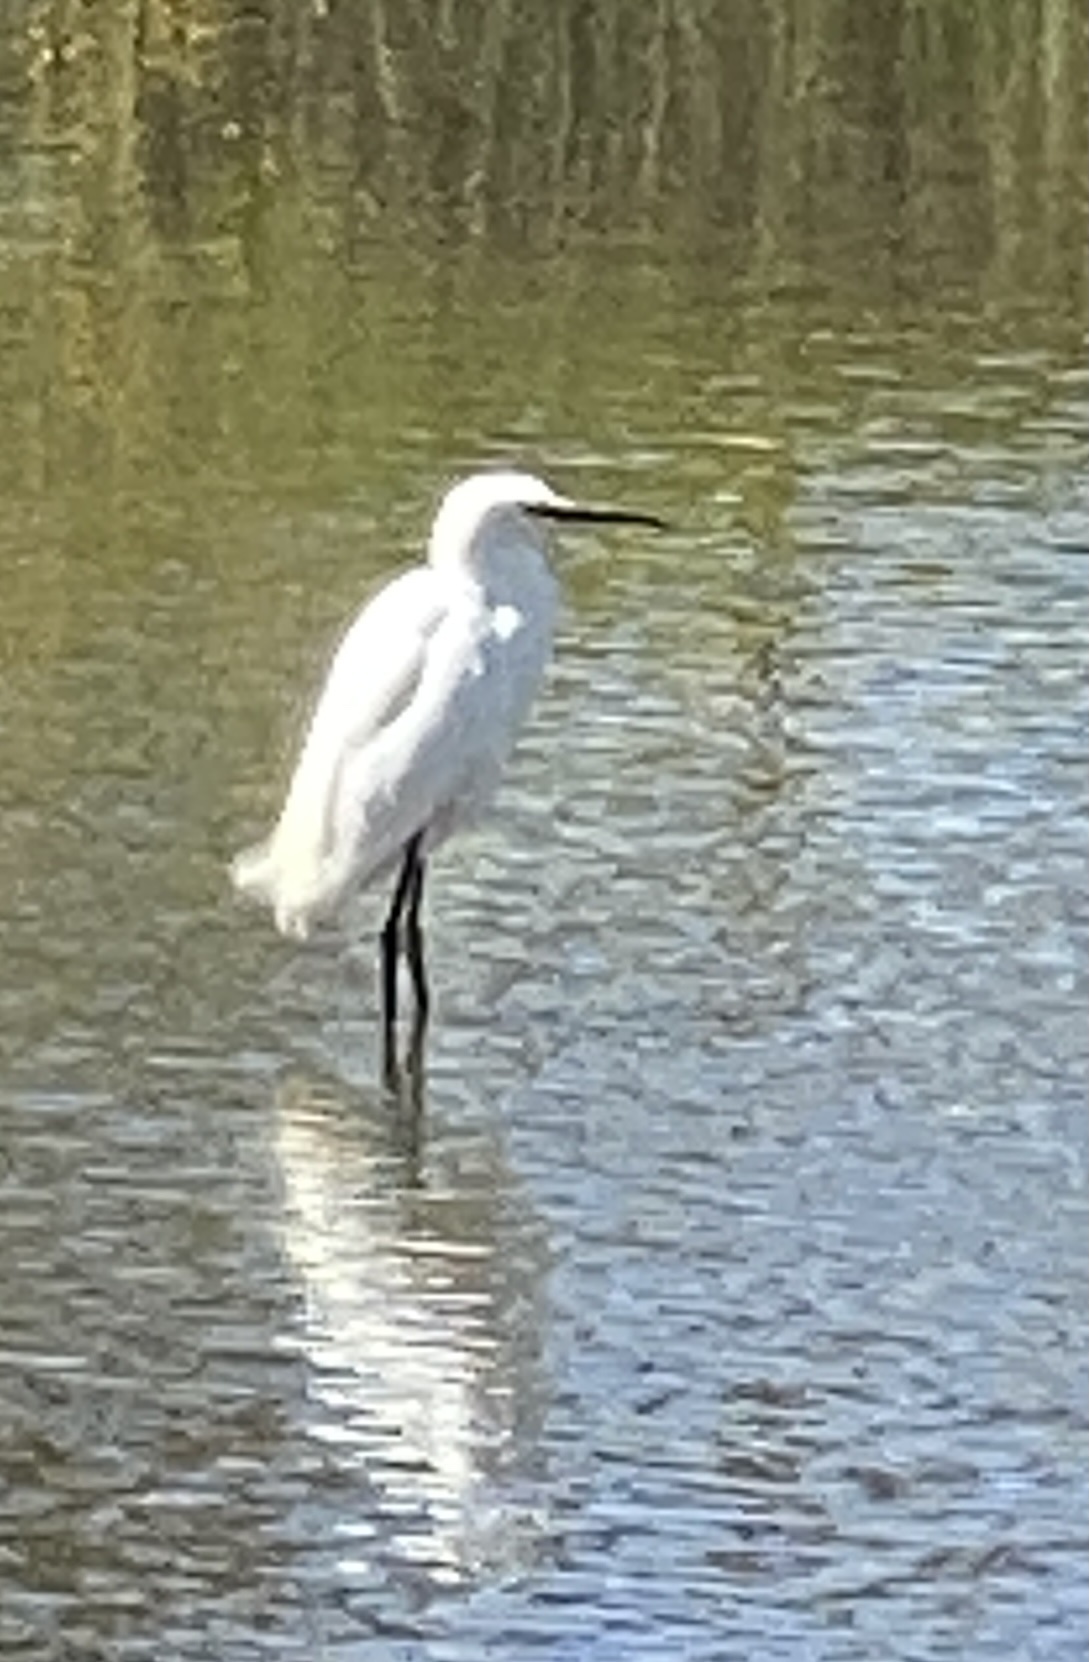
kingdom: Animalia
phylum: Chordata
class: Aves
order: Pelecaniformes
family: Ardeidae
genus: Egretta
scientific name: Egretta thula
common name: Snowy egret
